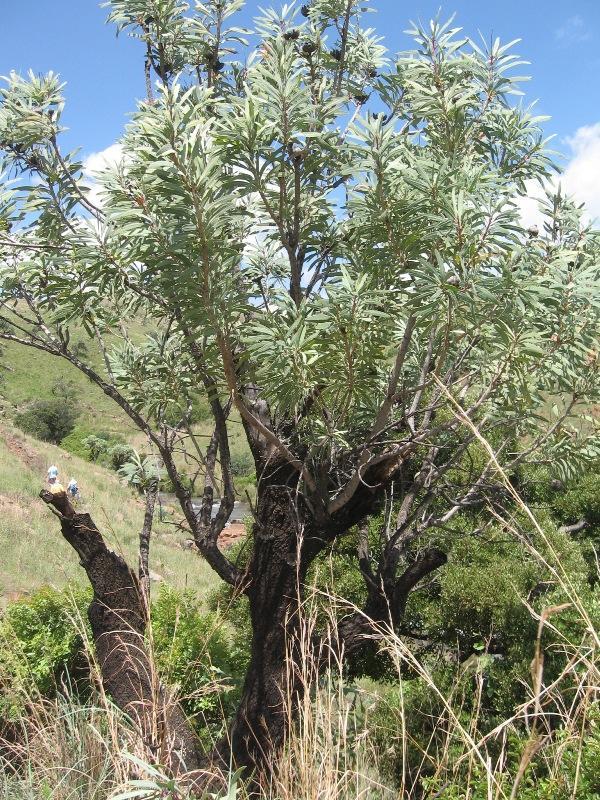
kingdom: Plantae
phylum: Tracheophyta
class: Magnoliopsida
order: Proteales
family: Proteaceae
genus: Protea
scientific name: Protea caffra
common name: Common sugarbush
